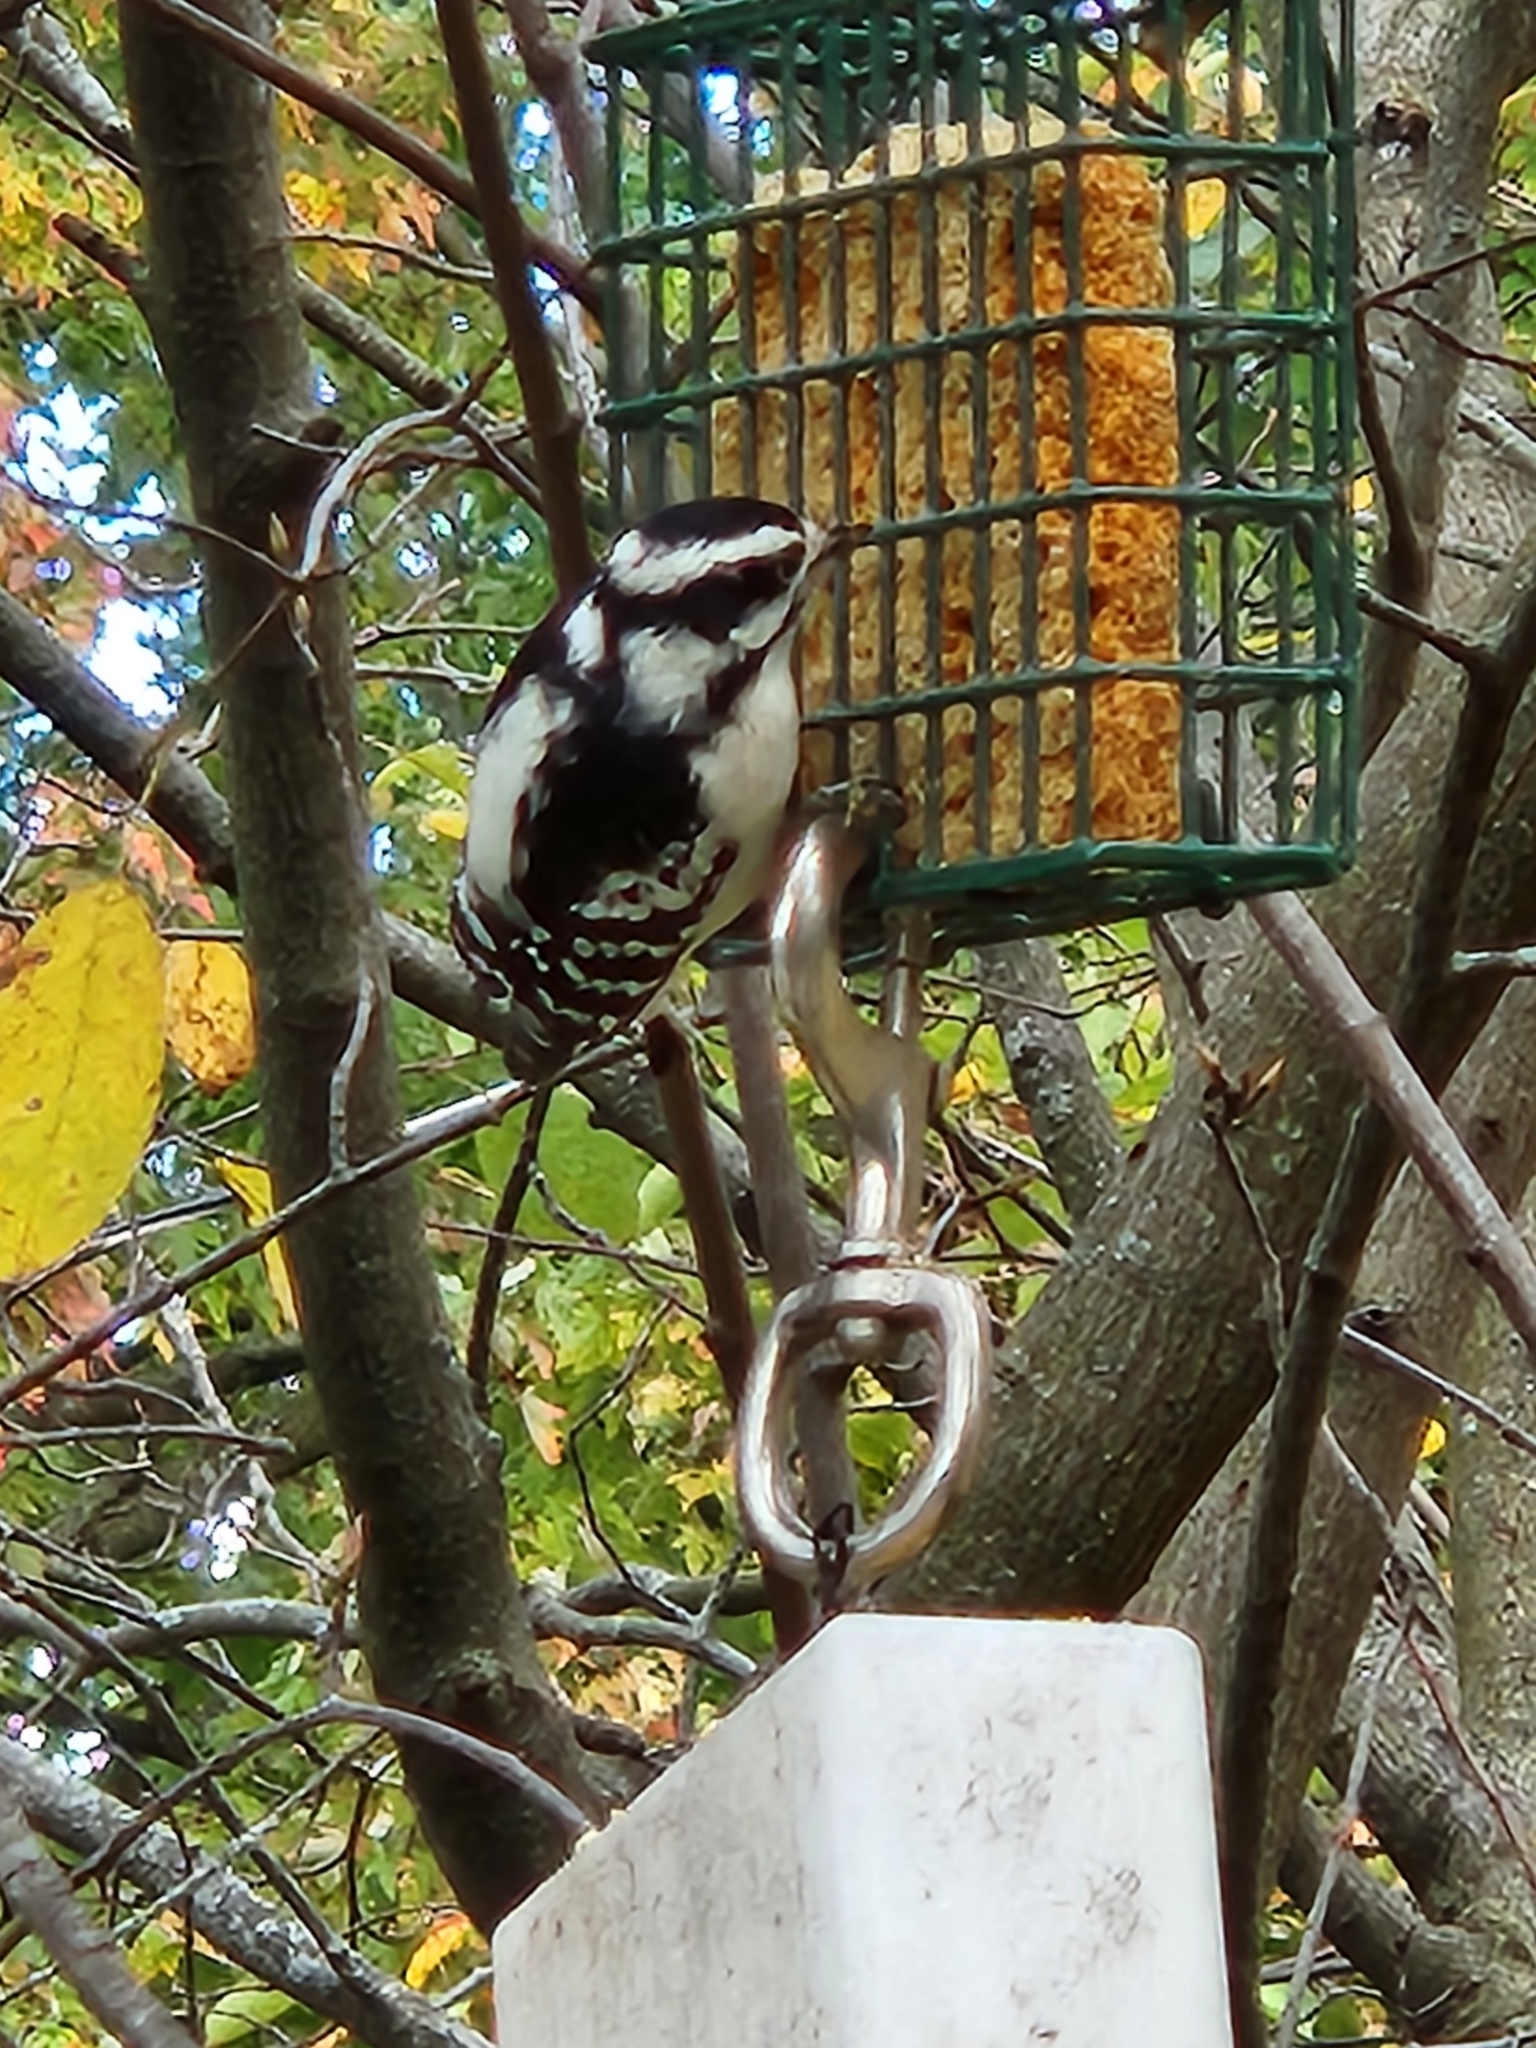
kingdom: Animalia
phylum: Chordata
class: Aves
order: Piciformes
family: Picidae
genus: Dryobates
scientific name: Dryobates pubescens
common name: Downy woodpecker
